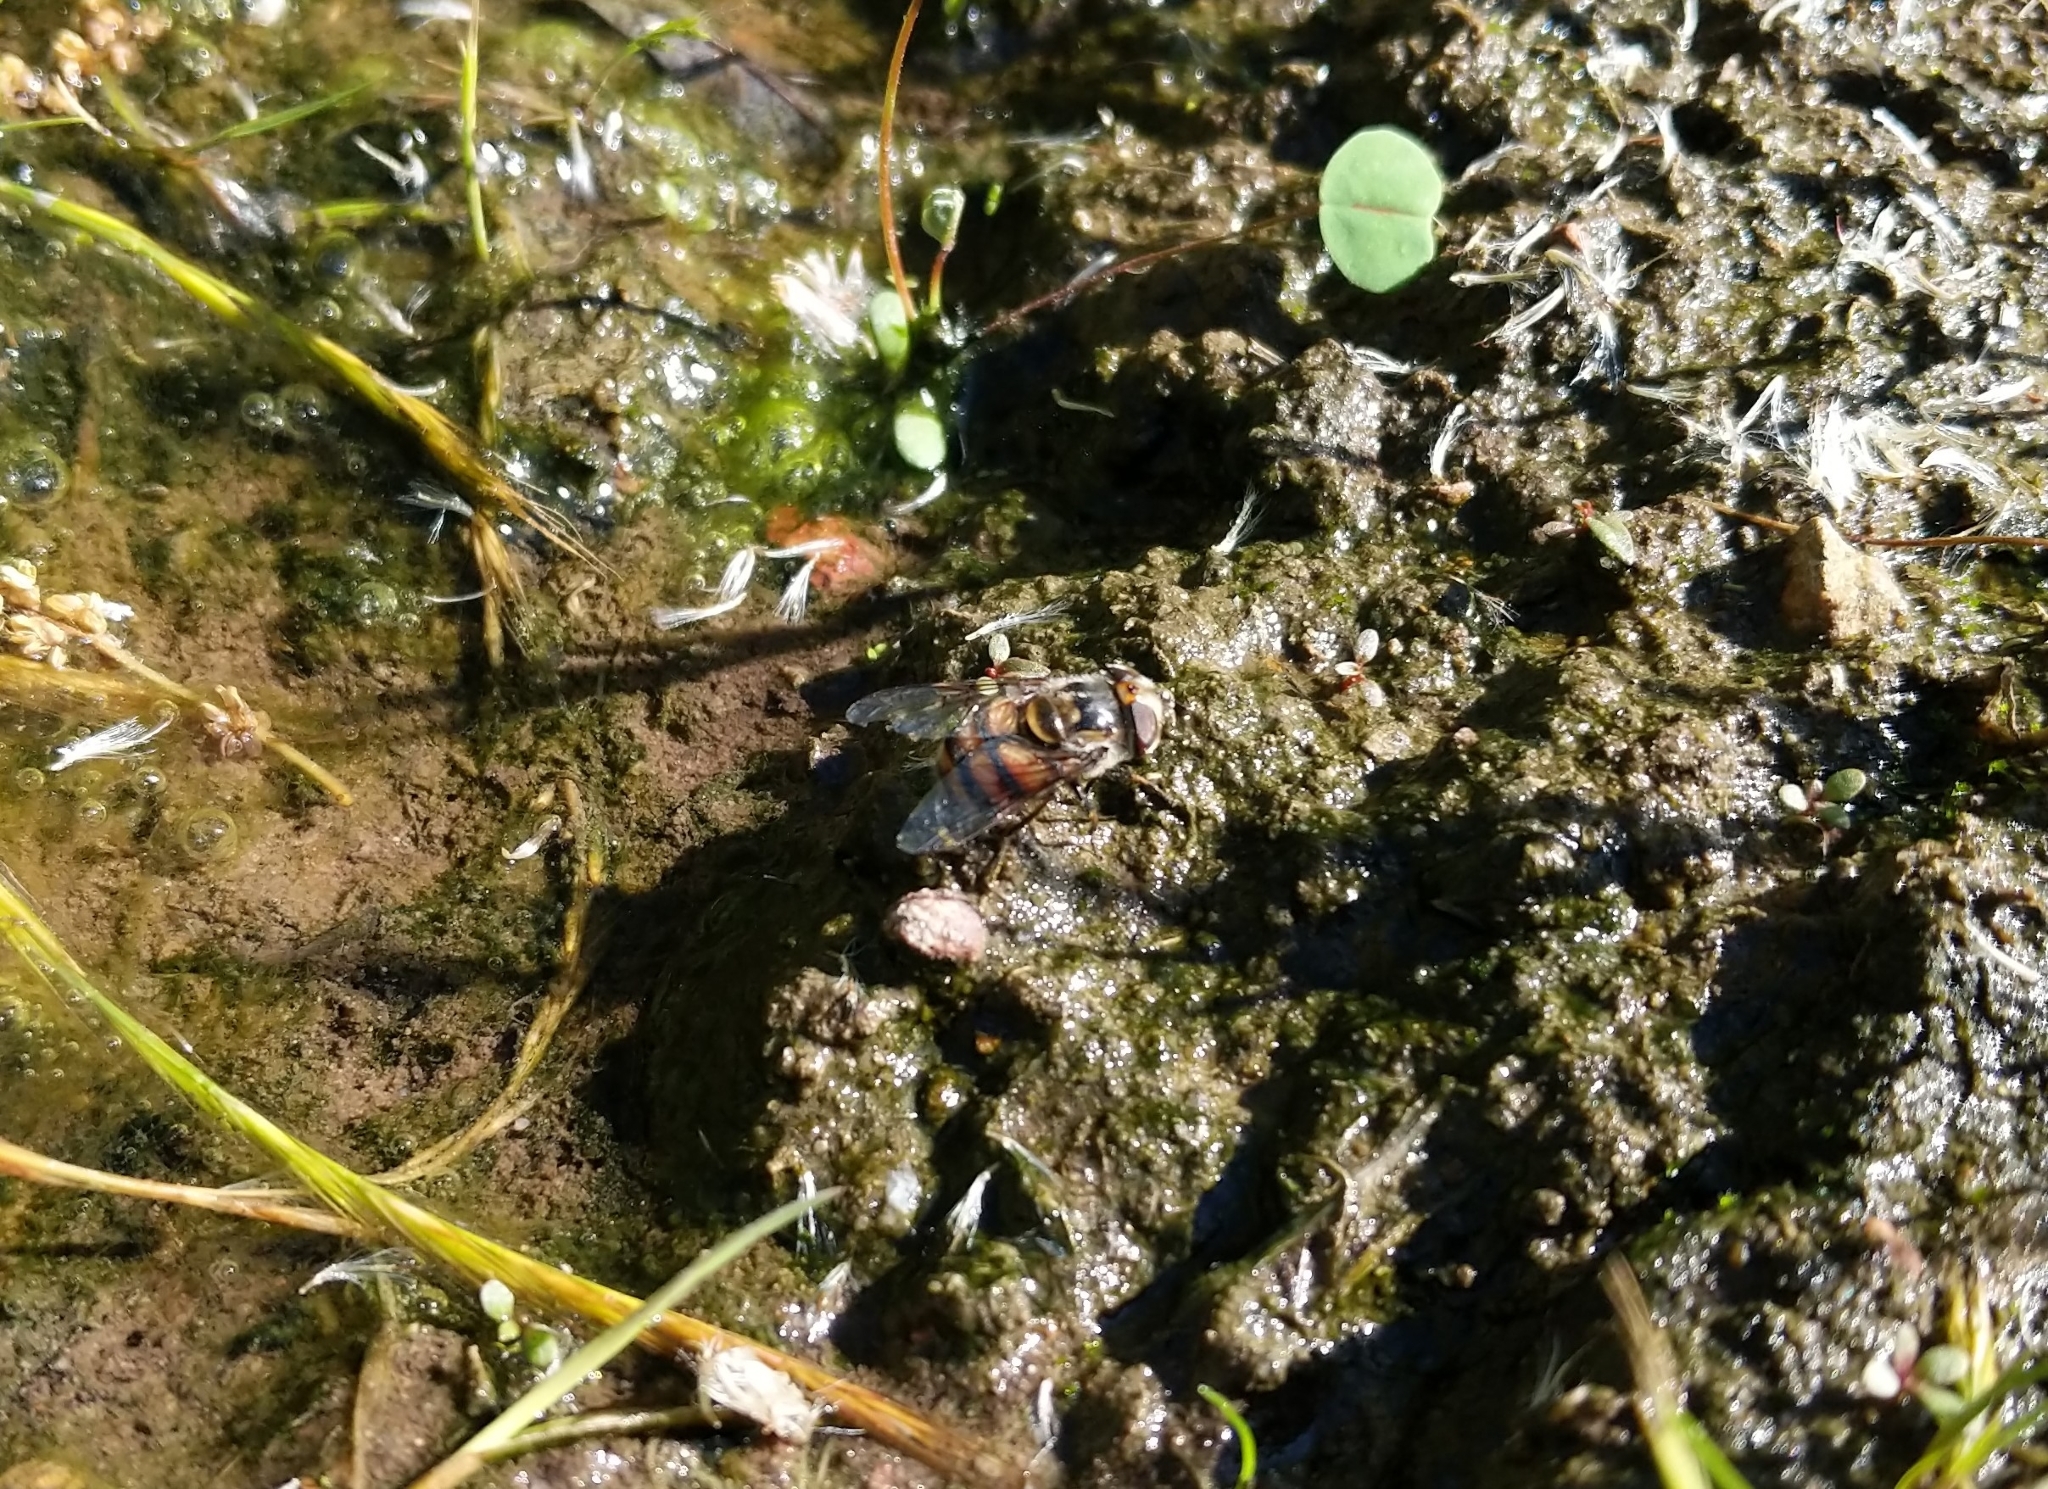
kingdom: Animalia
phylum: Arthropoda
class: Insecta
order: Diptera
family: Syrphidae
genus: Copestylum
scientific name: Copestylum avidum
